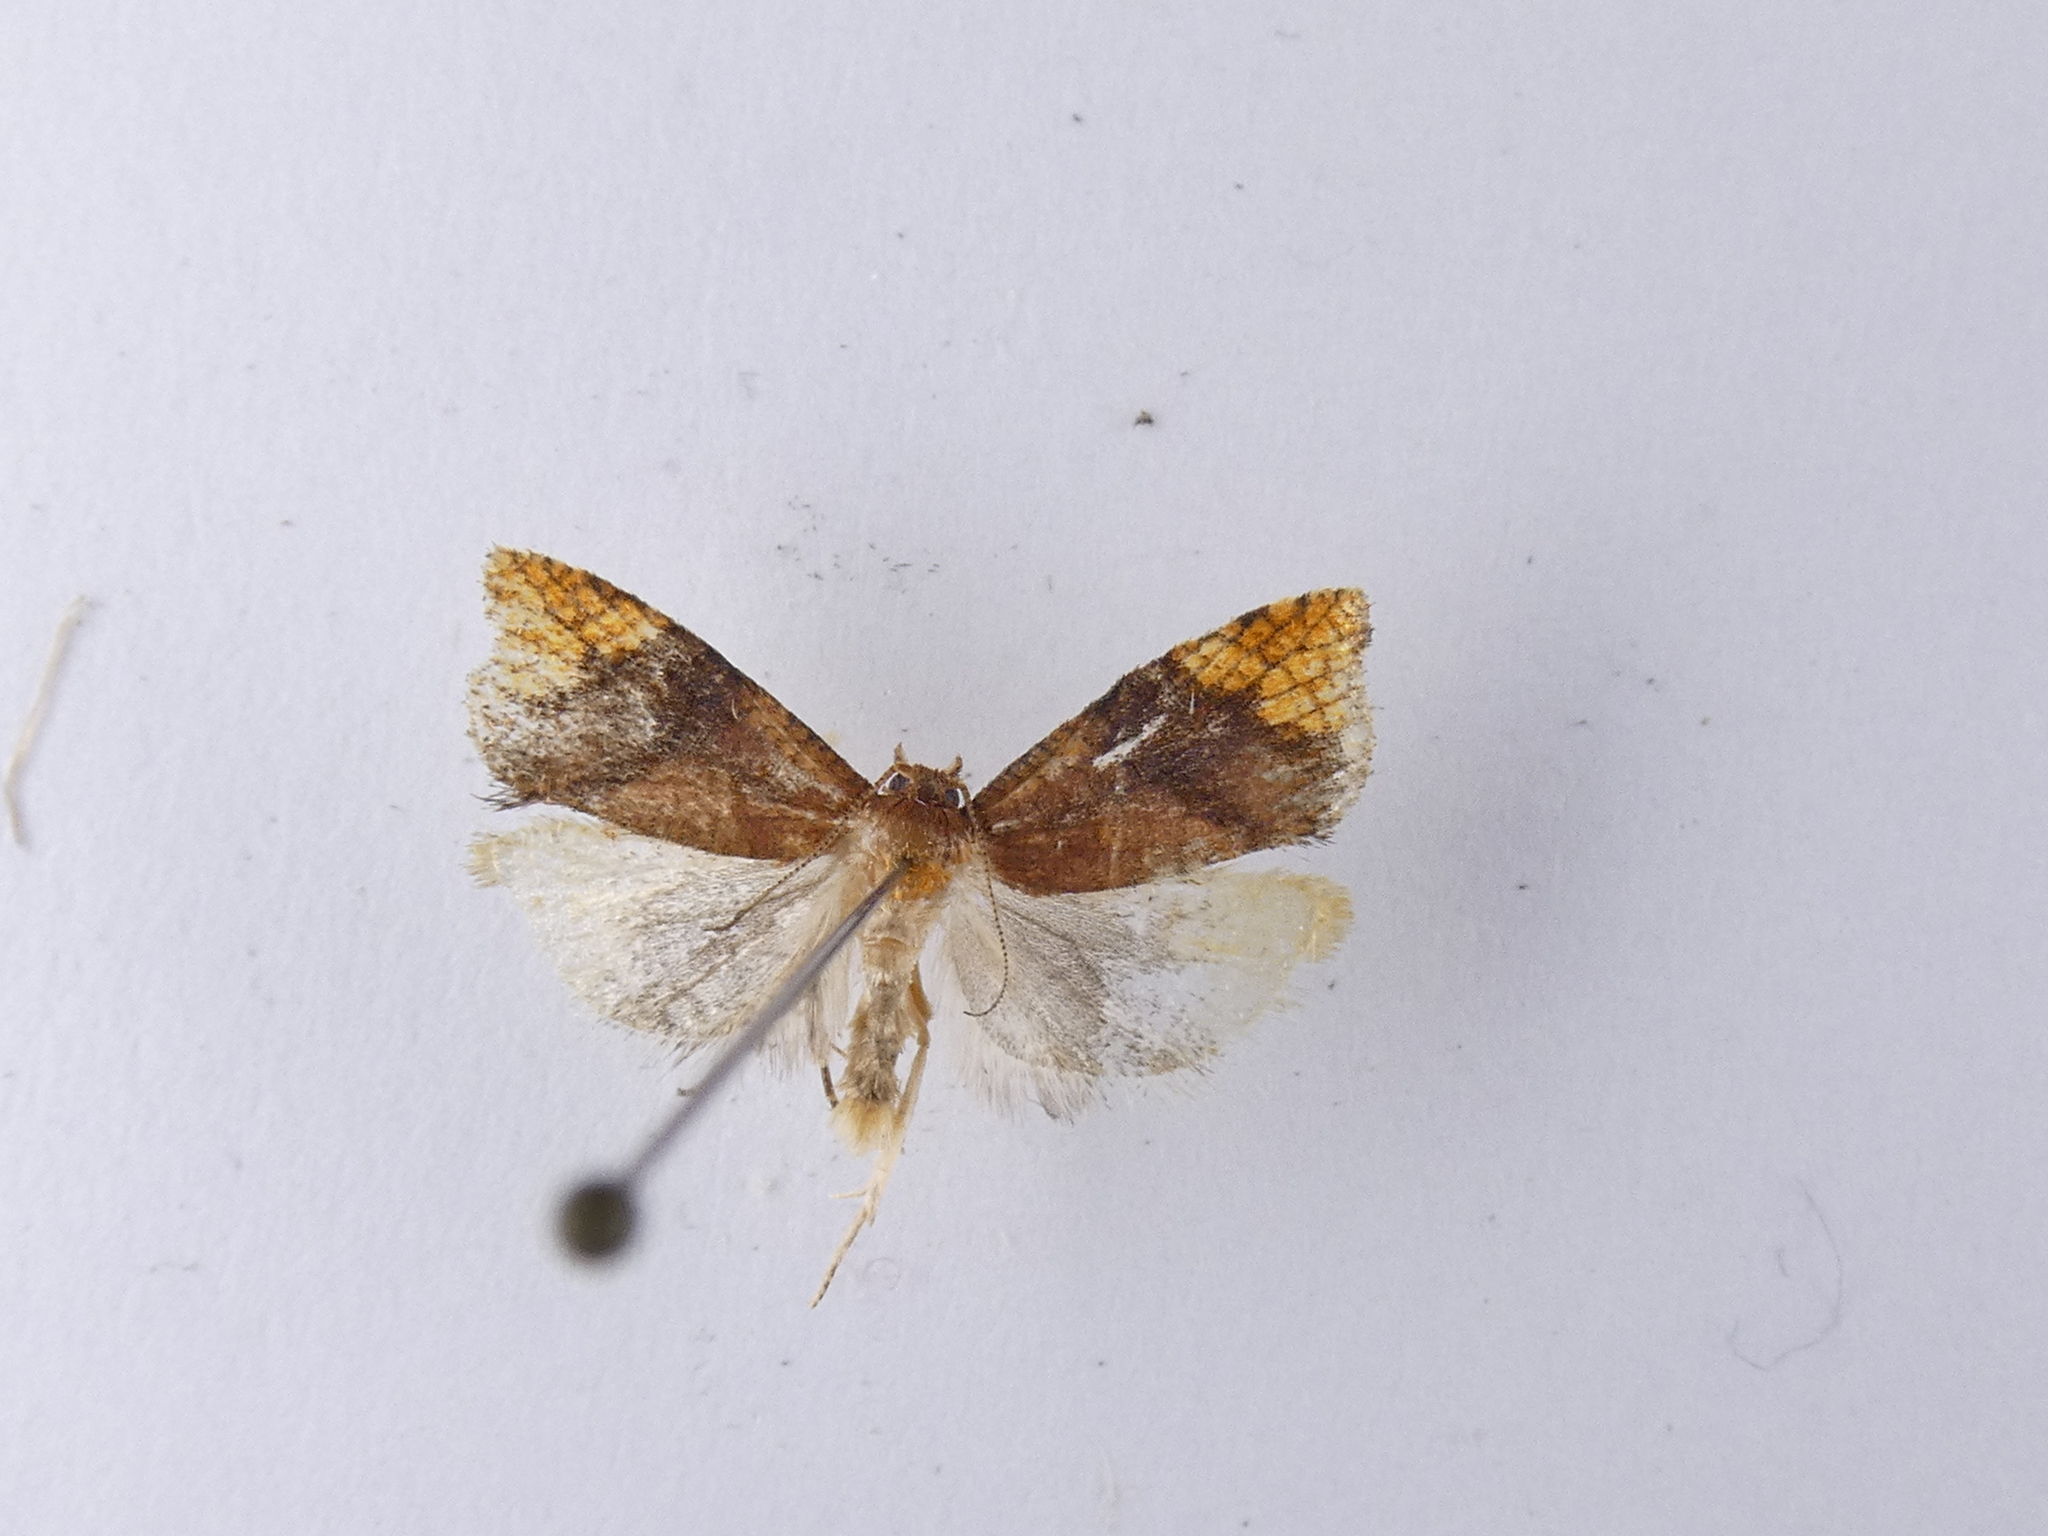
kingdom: Animalia
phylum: Arthropoda
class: Insecta
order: Lepidoptera
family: Tortricidae
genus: Pyrgotis
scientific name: Pyrgotis eudorana
